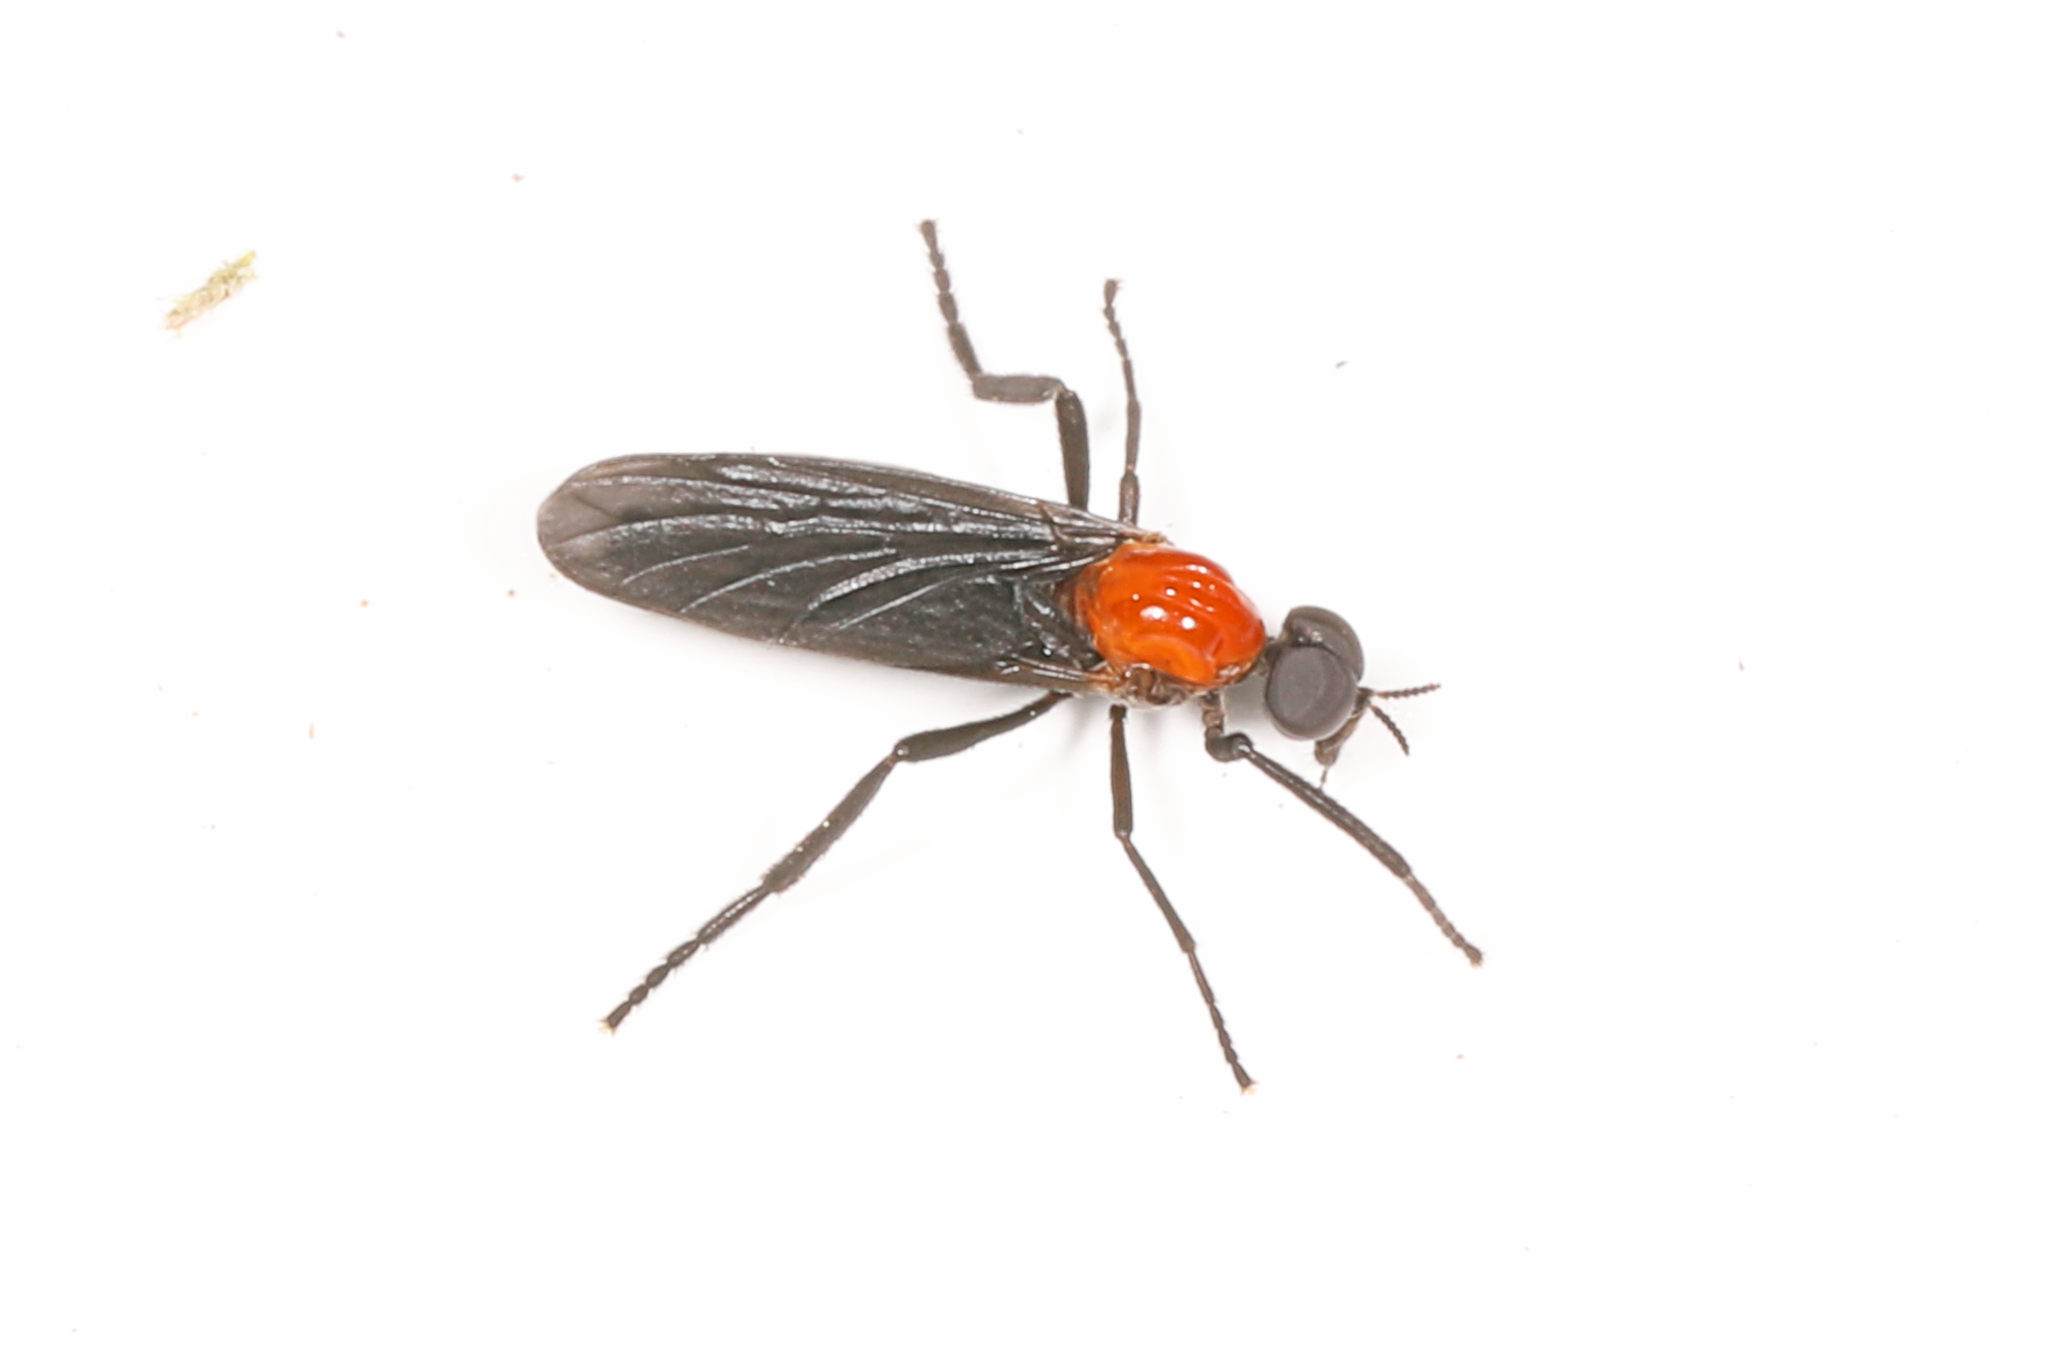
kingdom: Animalia
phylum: Arthropoda
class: Insecta
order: Diptera
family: Bibionidae
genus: Plecia
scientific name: Plecia nearctica
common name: March fly
